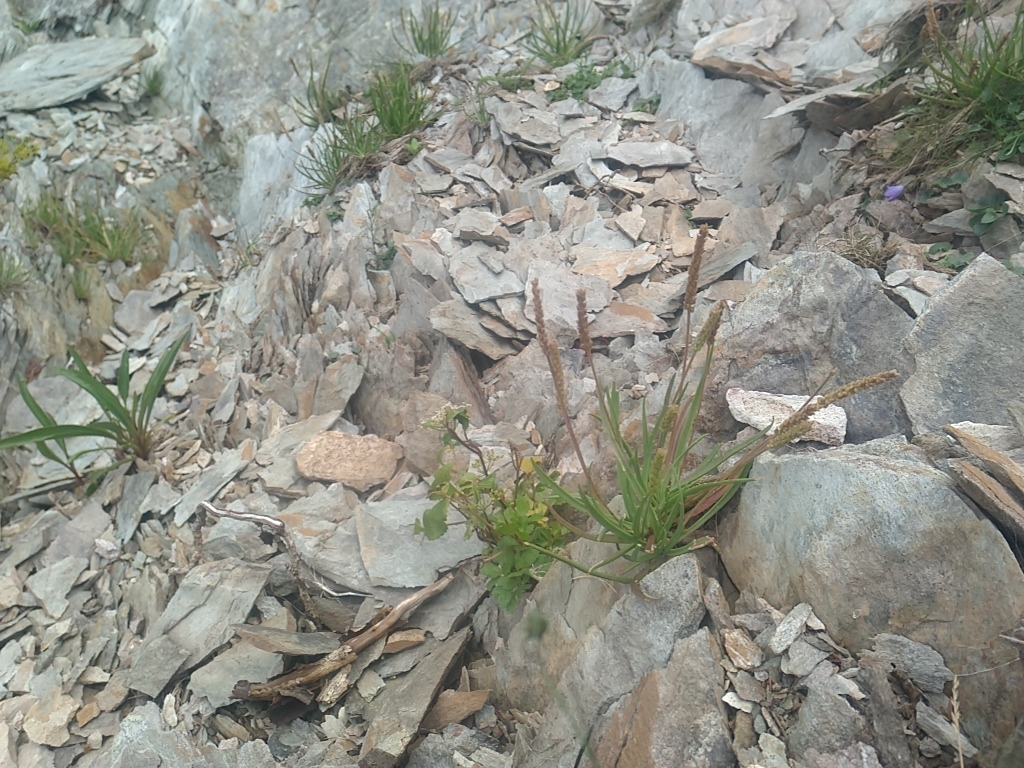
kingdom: Plantae
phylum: Tracheophyta
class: Magnoliopsida
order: Lamiales
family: Plantaginaceae
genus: Plantago
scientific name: Plantago maritima
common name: Sea plantain
